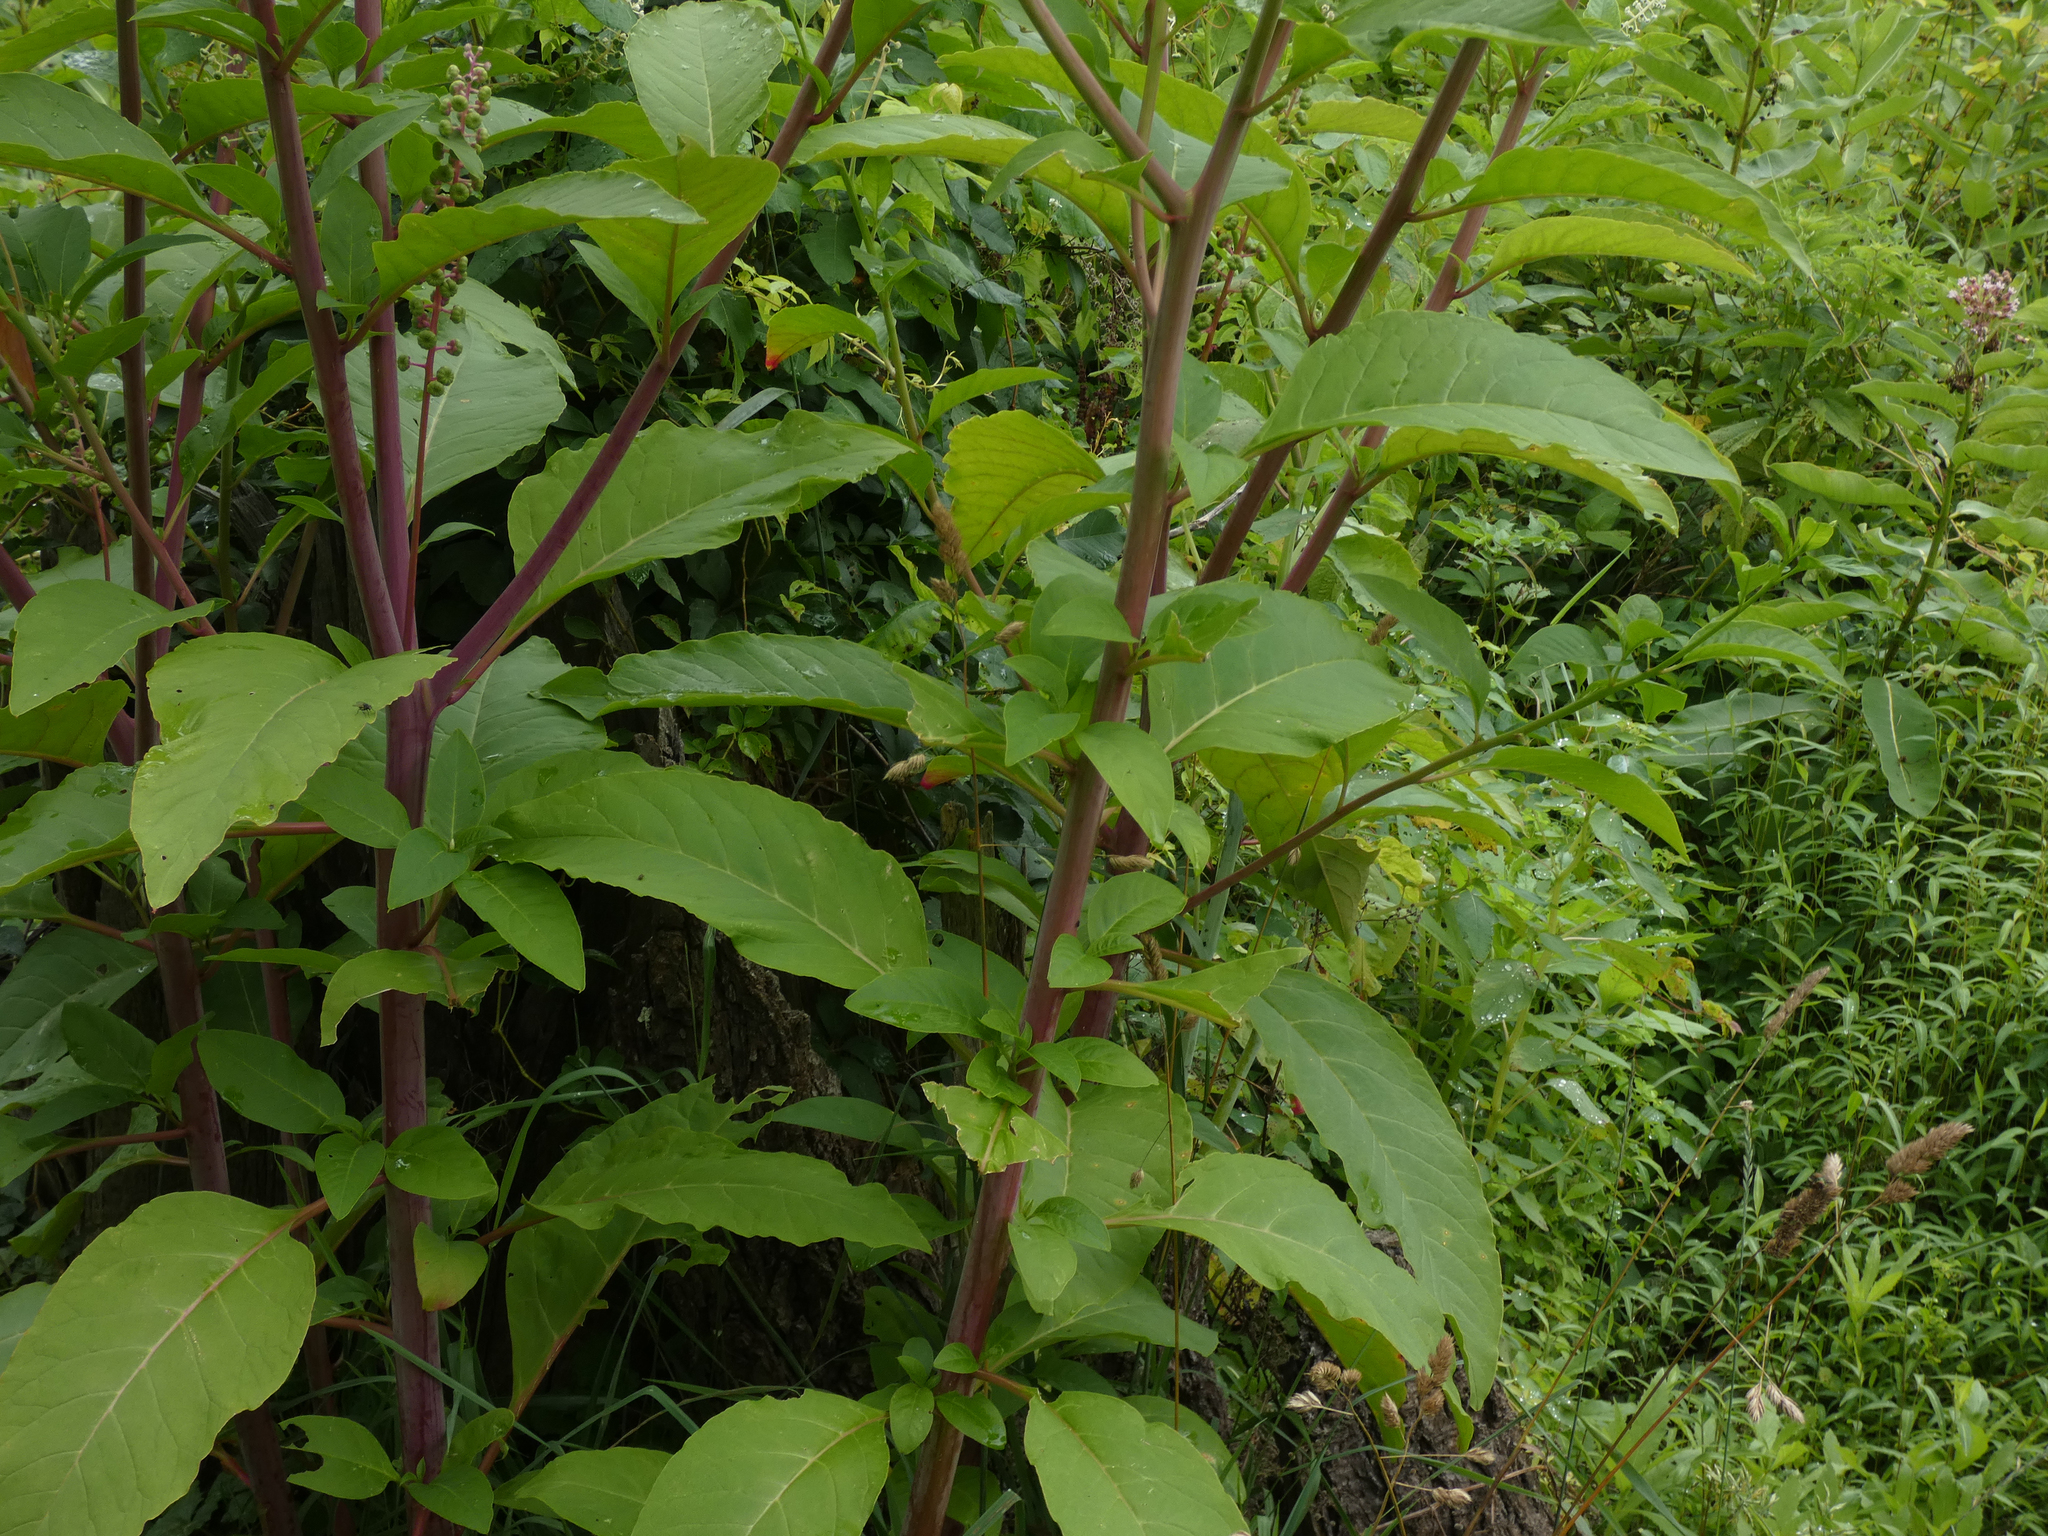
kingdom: Plantae
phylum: Tracheophyta
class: Magnoliopsida
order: Caryophyllales
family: Phytolaccaceae
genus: Phytolacca
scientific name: Phytolacca americana
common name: American pokeweed
